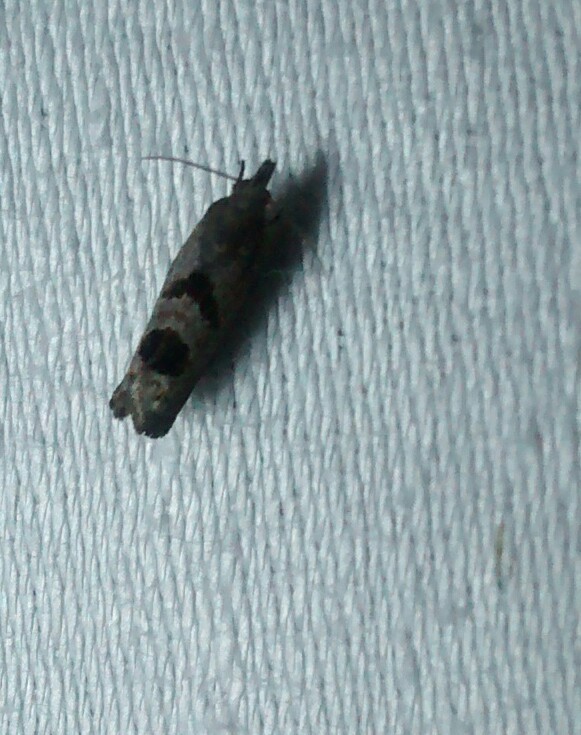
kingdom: Animalia
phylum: Arthropoda
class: Insecta
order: Lepidoptera
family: Tortricidae
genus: Eucosma
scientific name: Eucosma tomonana
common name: Aster-head eucosma moth
